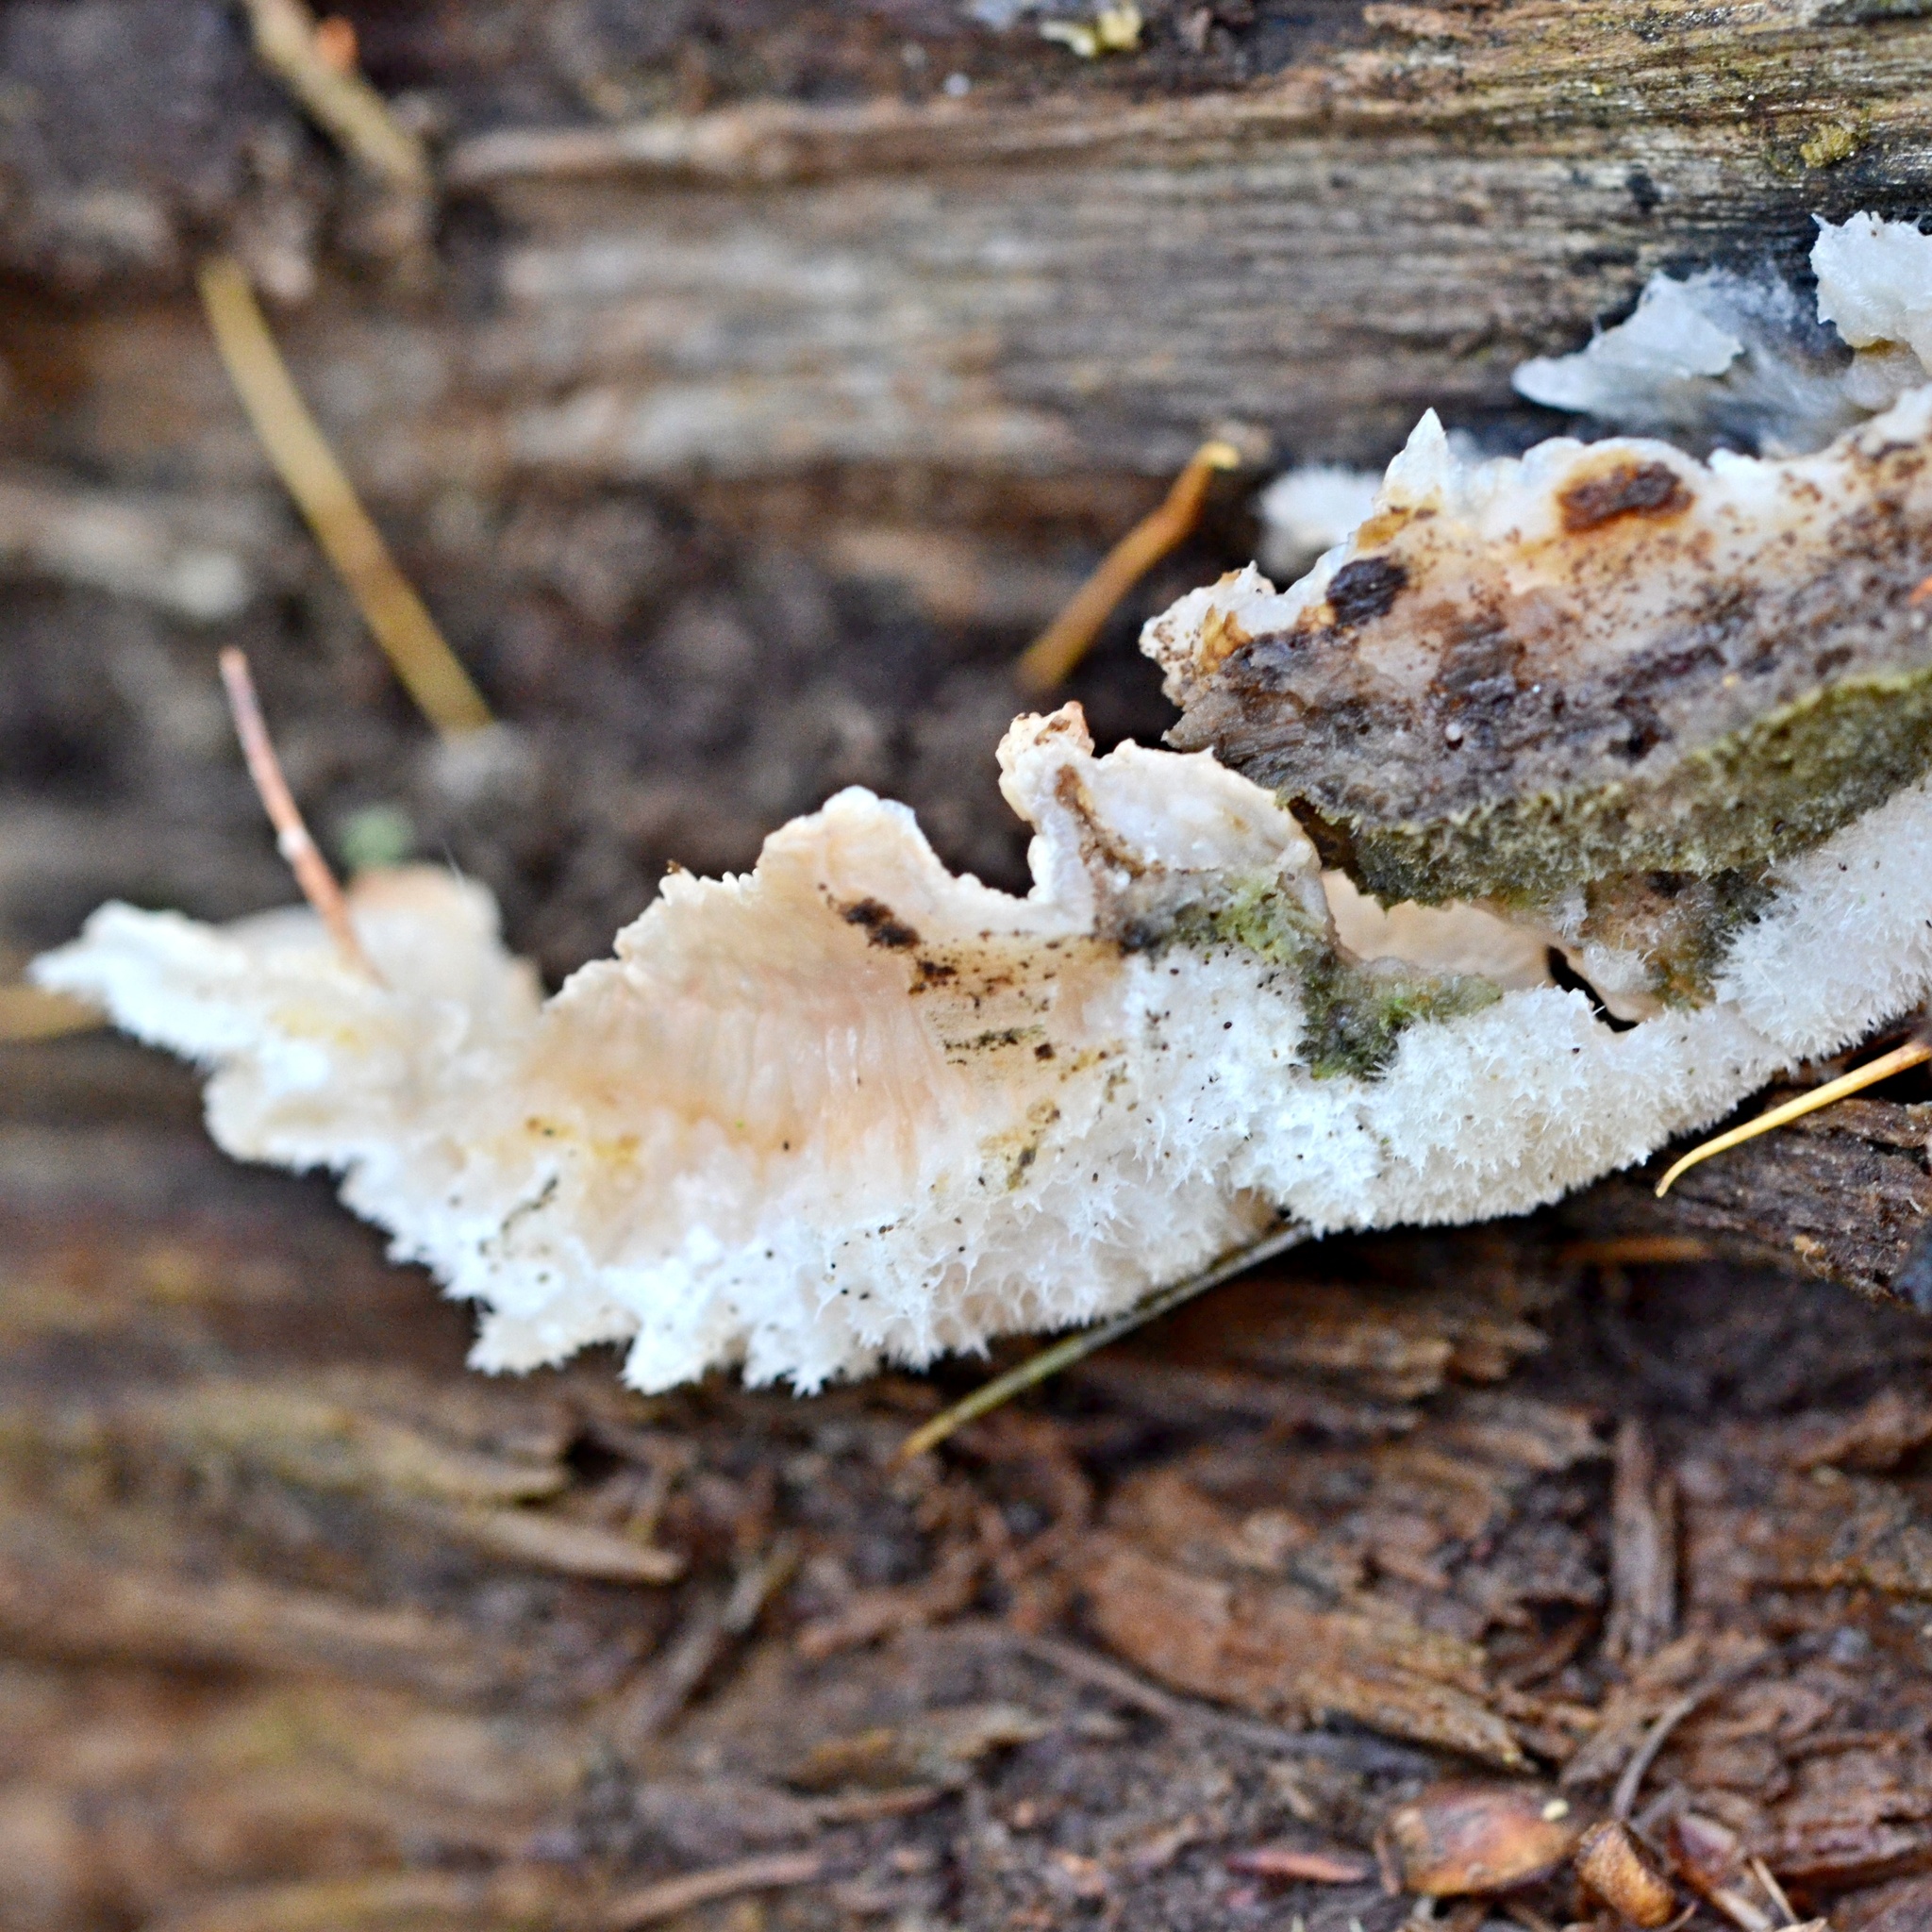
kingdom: Fungi
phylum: Basidiomycota
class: Agaricomycetes
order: Polyporales
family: Meruliaceae
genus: Phlebia
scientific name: Phlebia tremellosa
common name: Jelly rot
